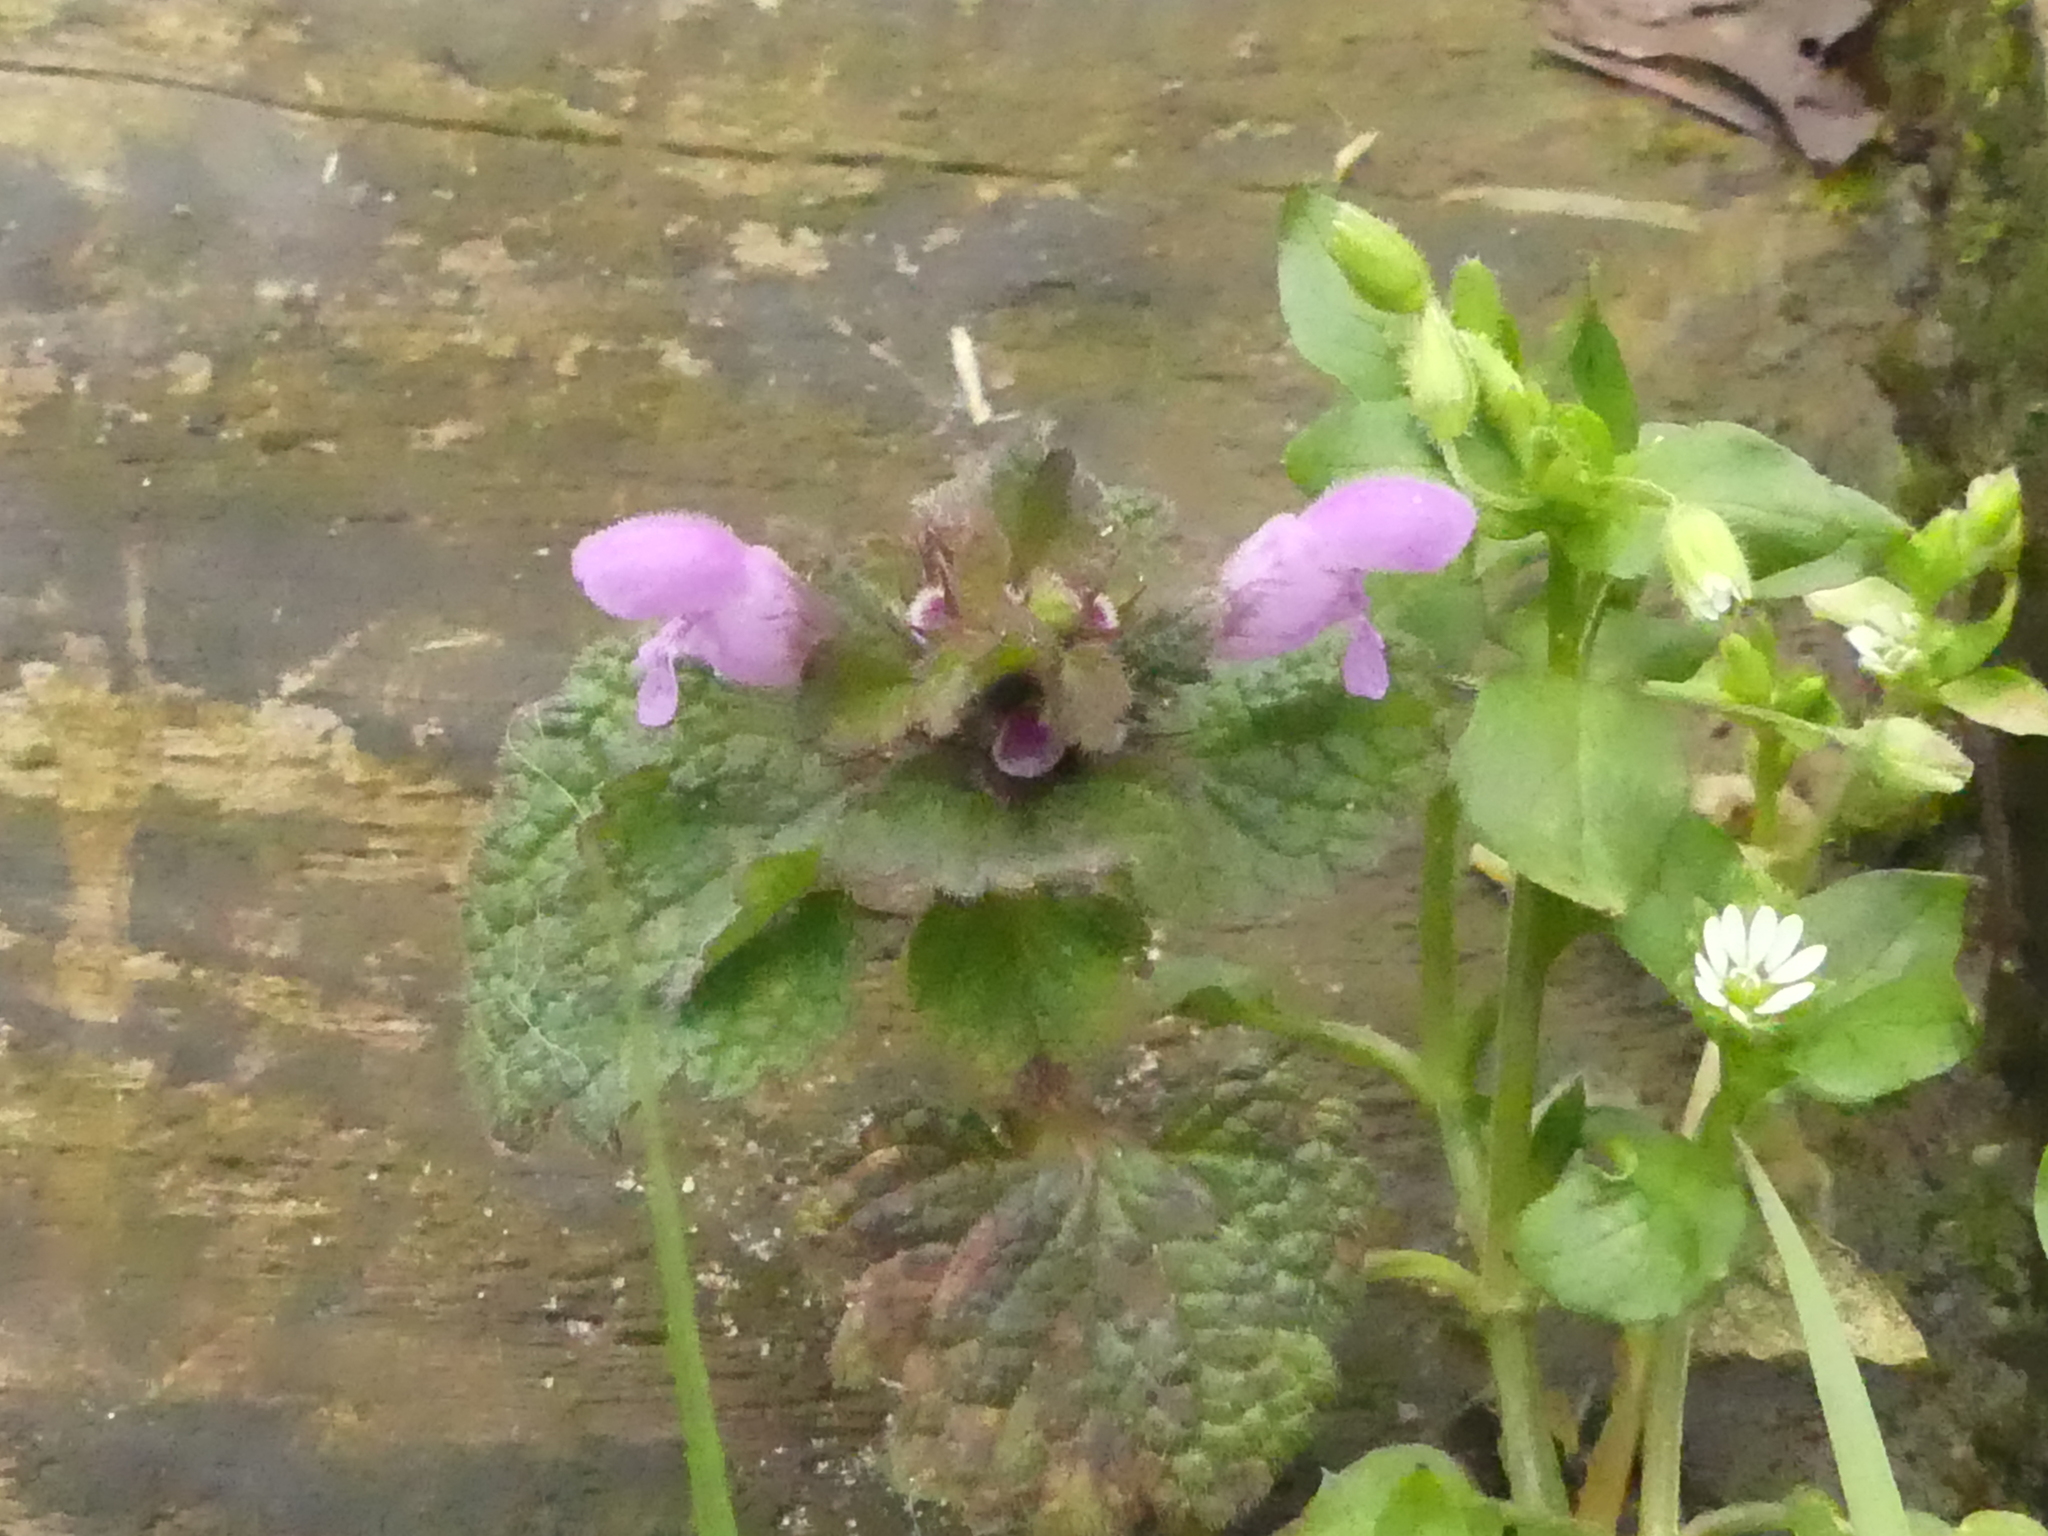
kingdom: Plantae
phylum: Tracheophyta
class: Magnoliopsida
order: Lamiales
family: Lamiaceae
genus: Lamium
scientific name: Lamium purpureum
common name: Red dead-nettle
